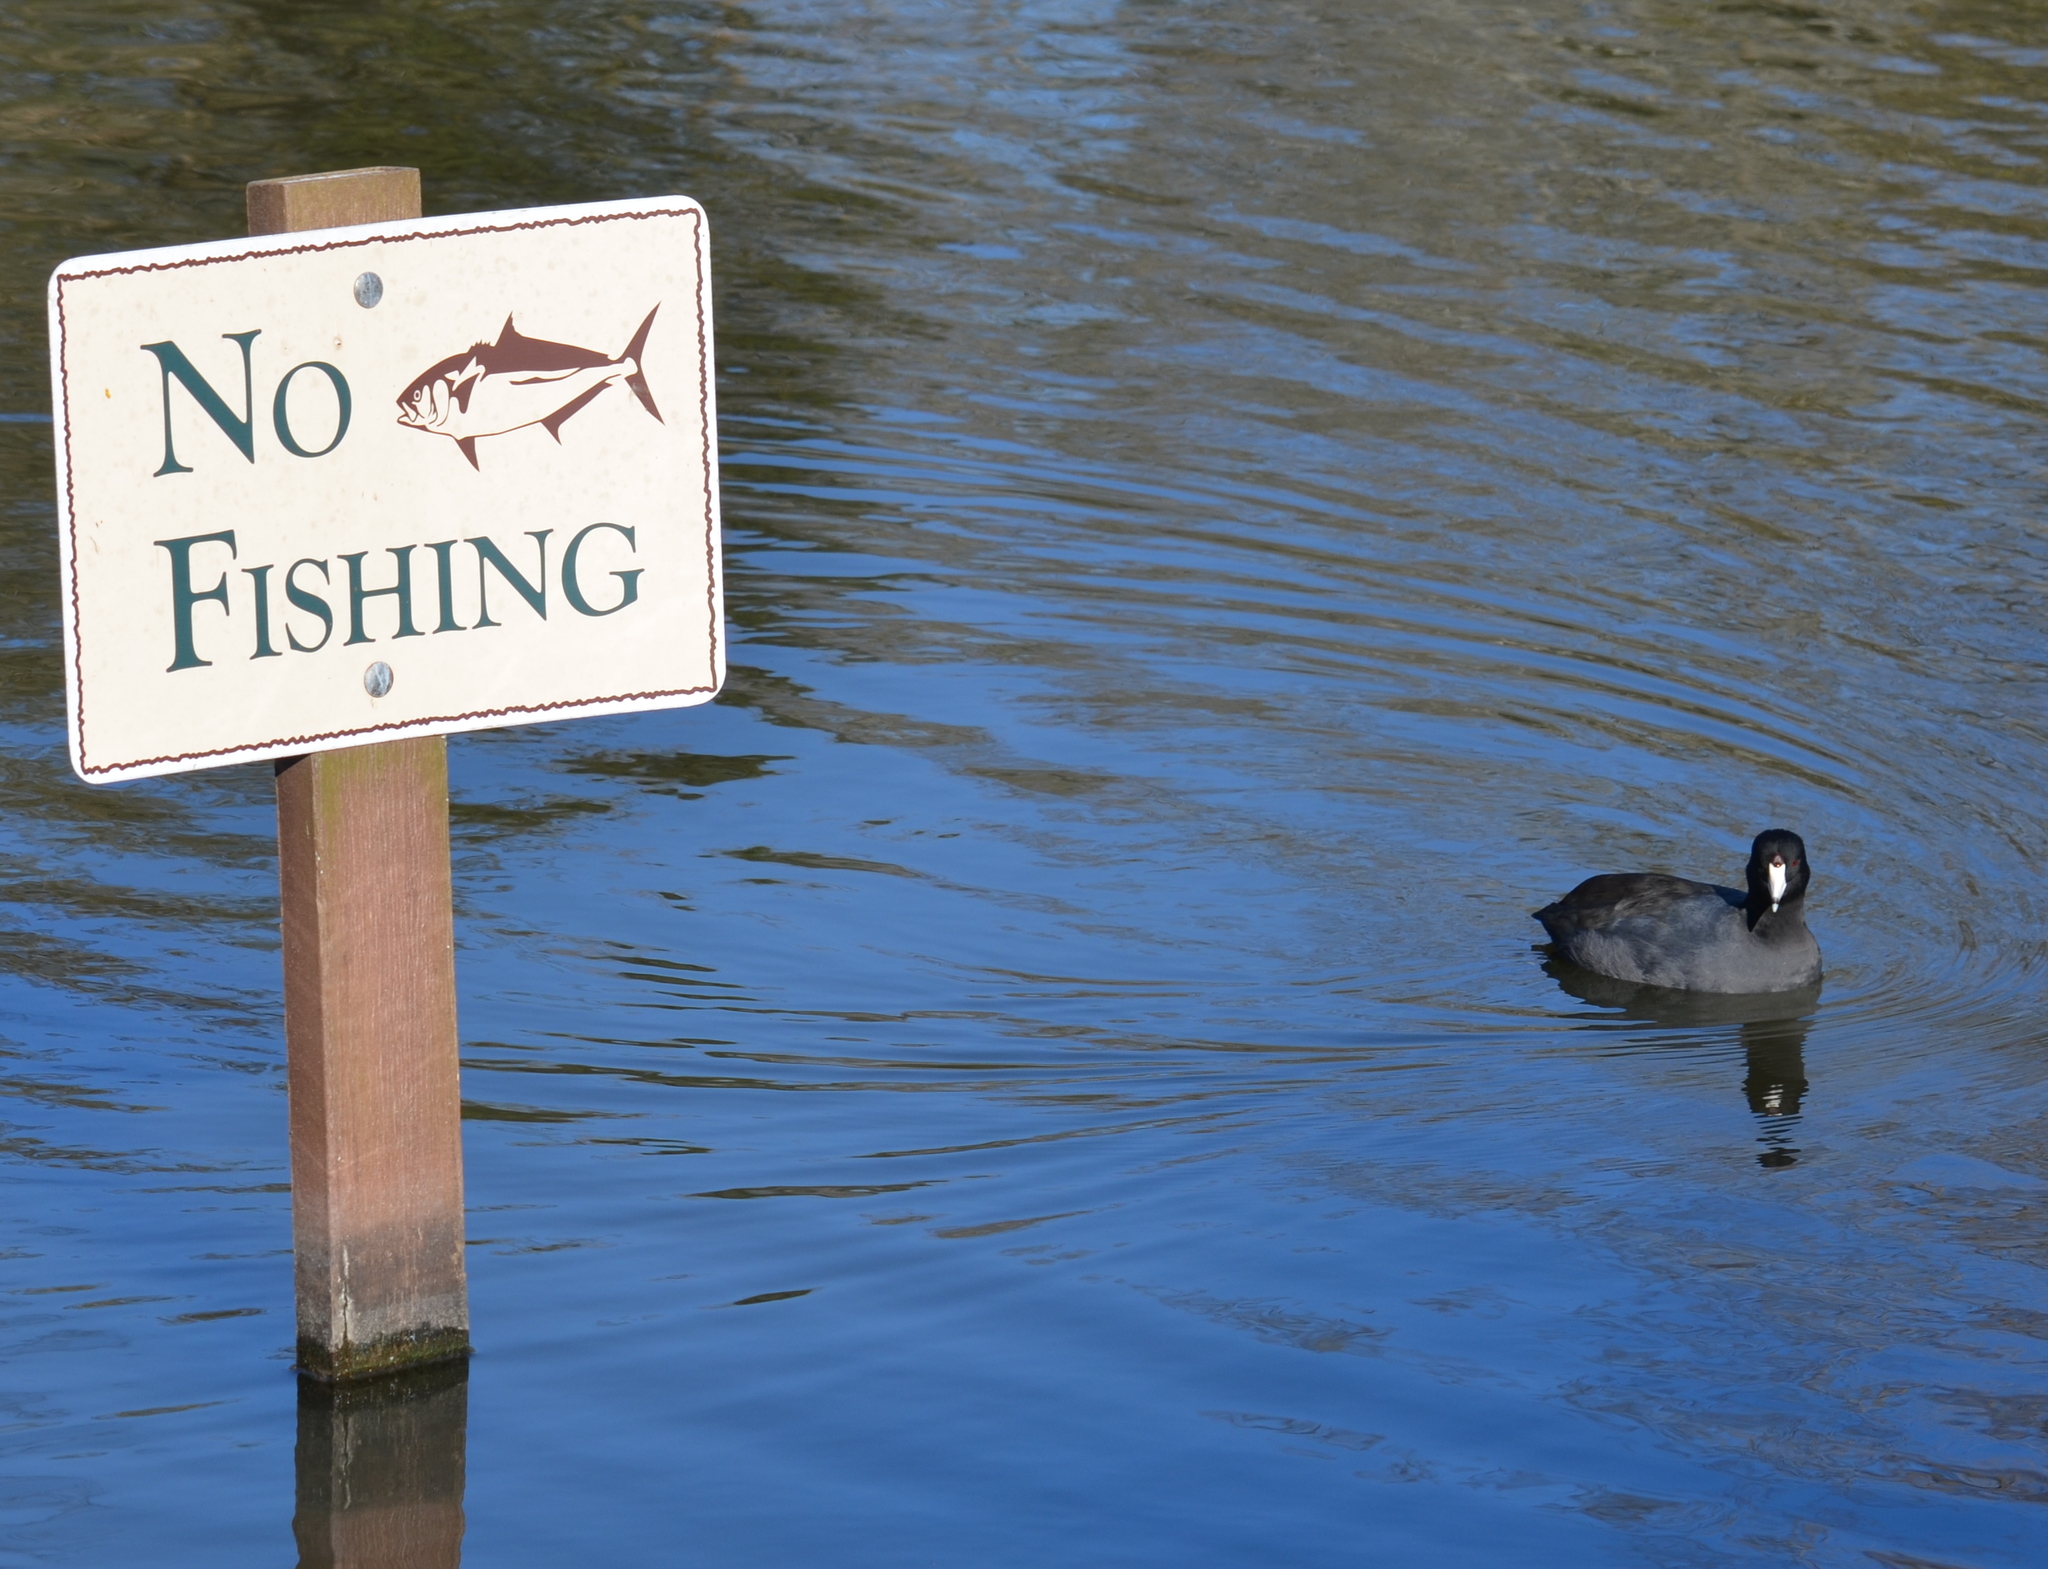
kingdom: Animalia
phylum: Chordata
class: Aves
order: Gruiformes
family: Rallidae
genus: Fulica
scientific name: Fulica americana
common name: American coot
